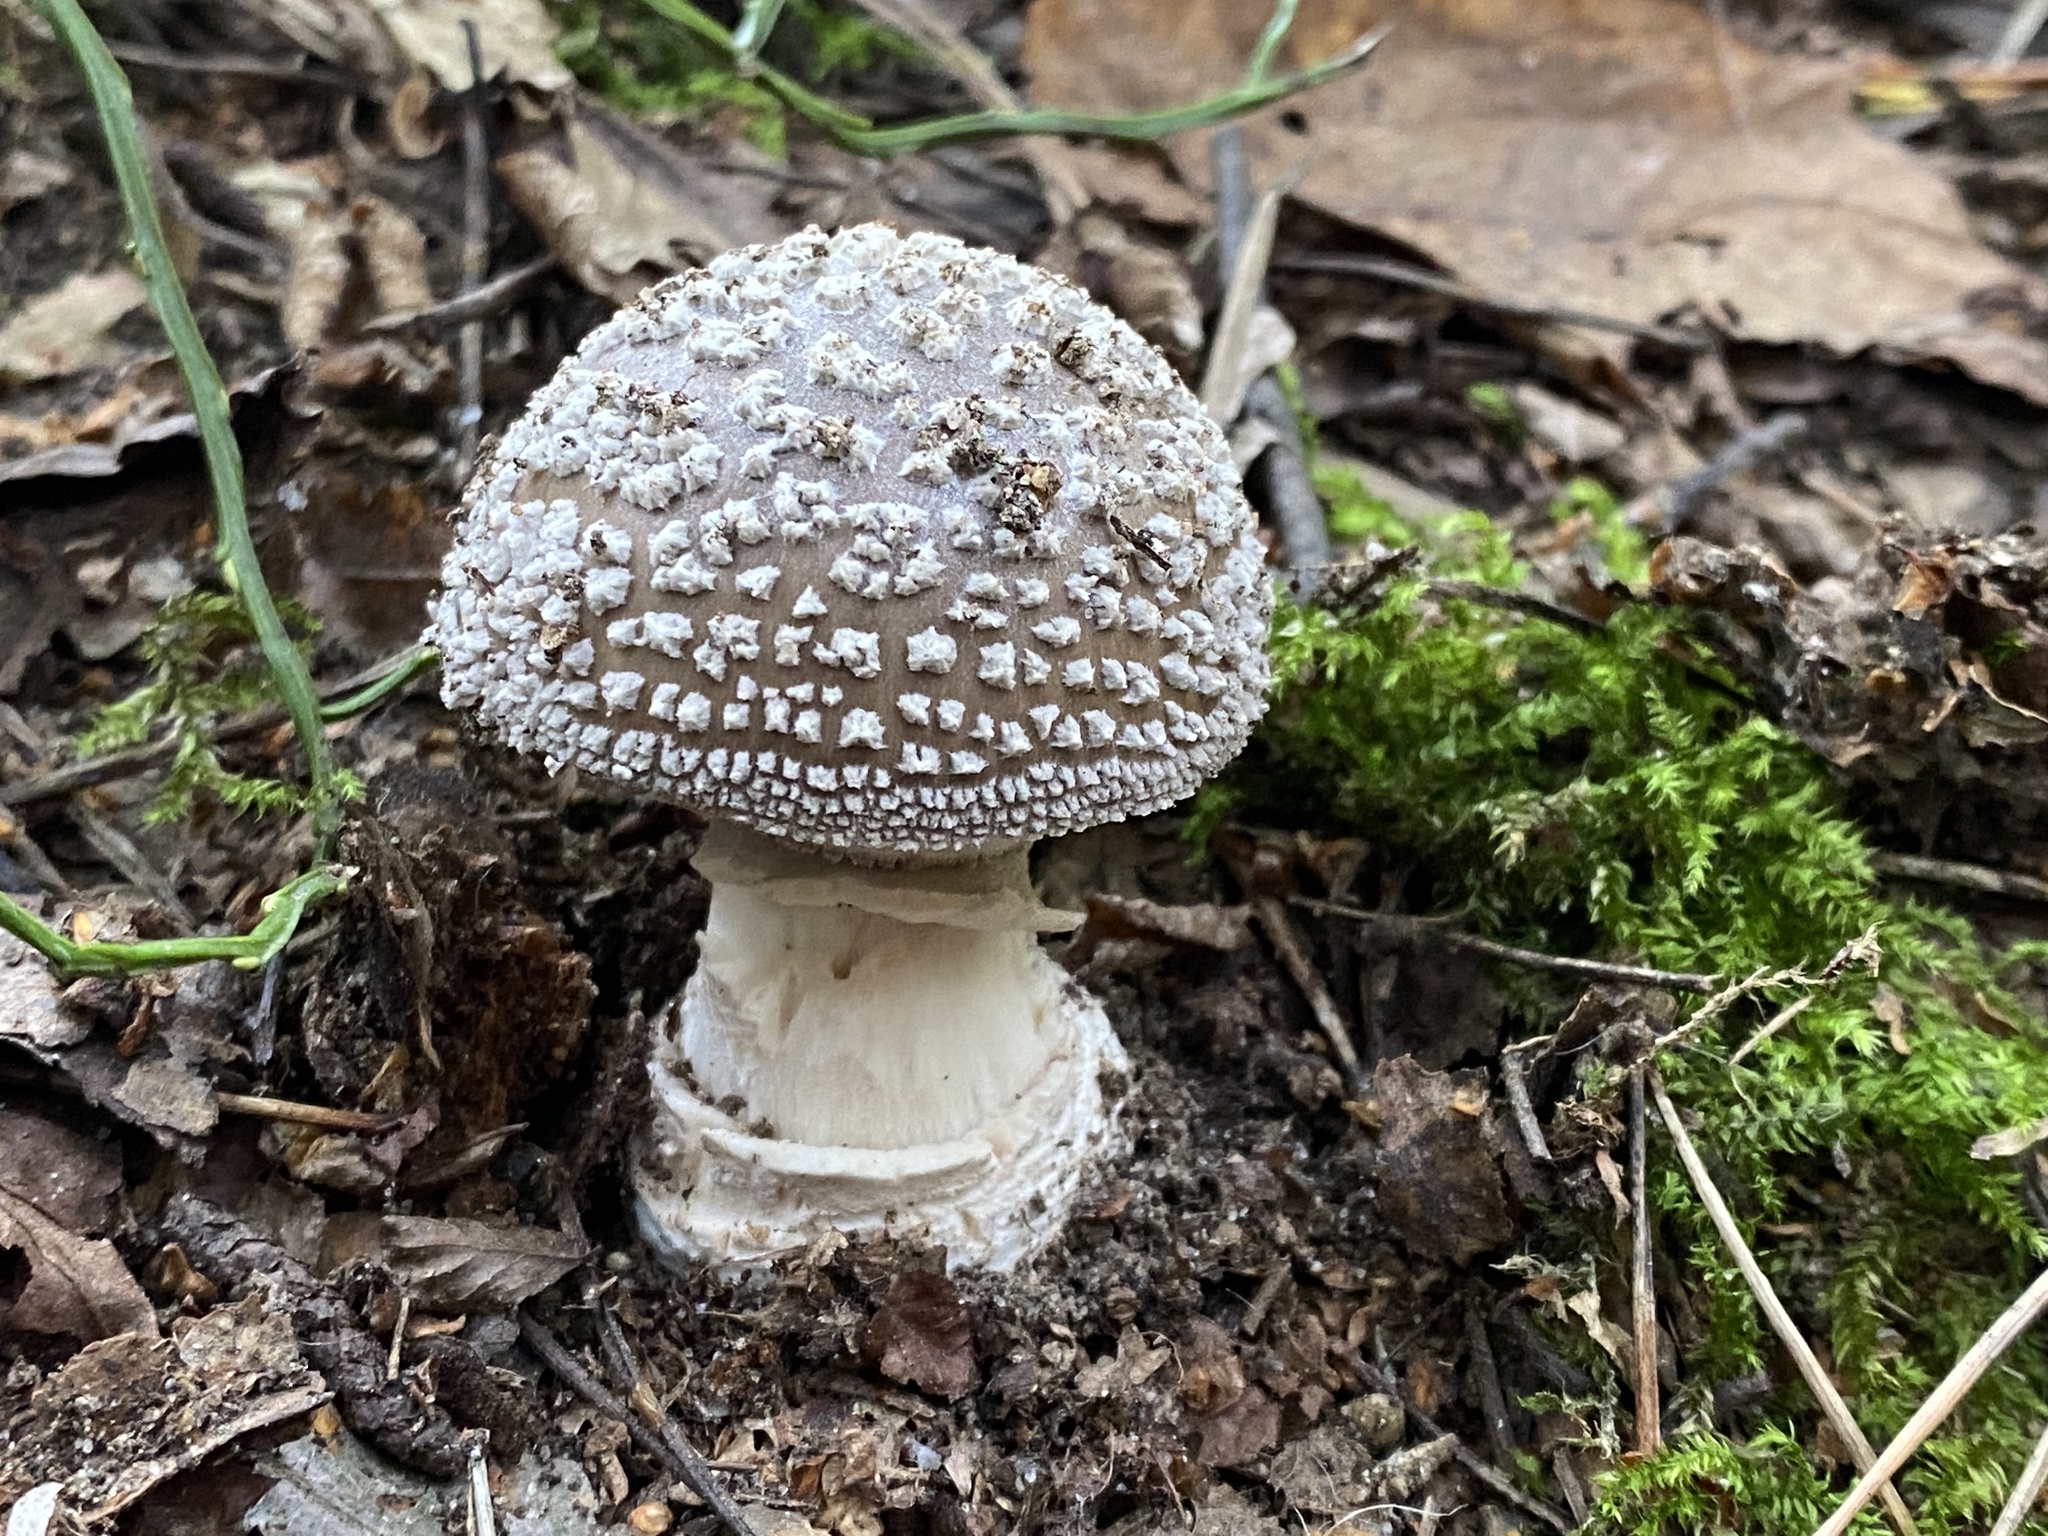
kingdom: Fungi
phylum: Basidiomycota
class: Agaricomycetes
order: Agaricales
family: Amanitaceae
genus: Amanita
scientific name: Amanita pantherina
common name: Panthercap
